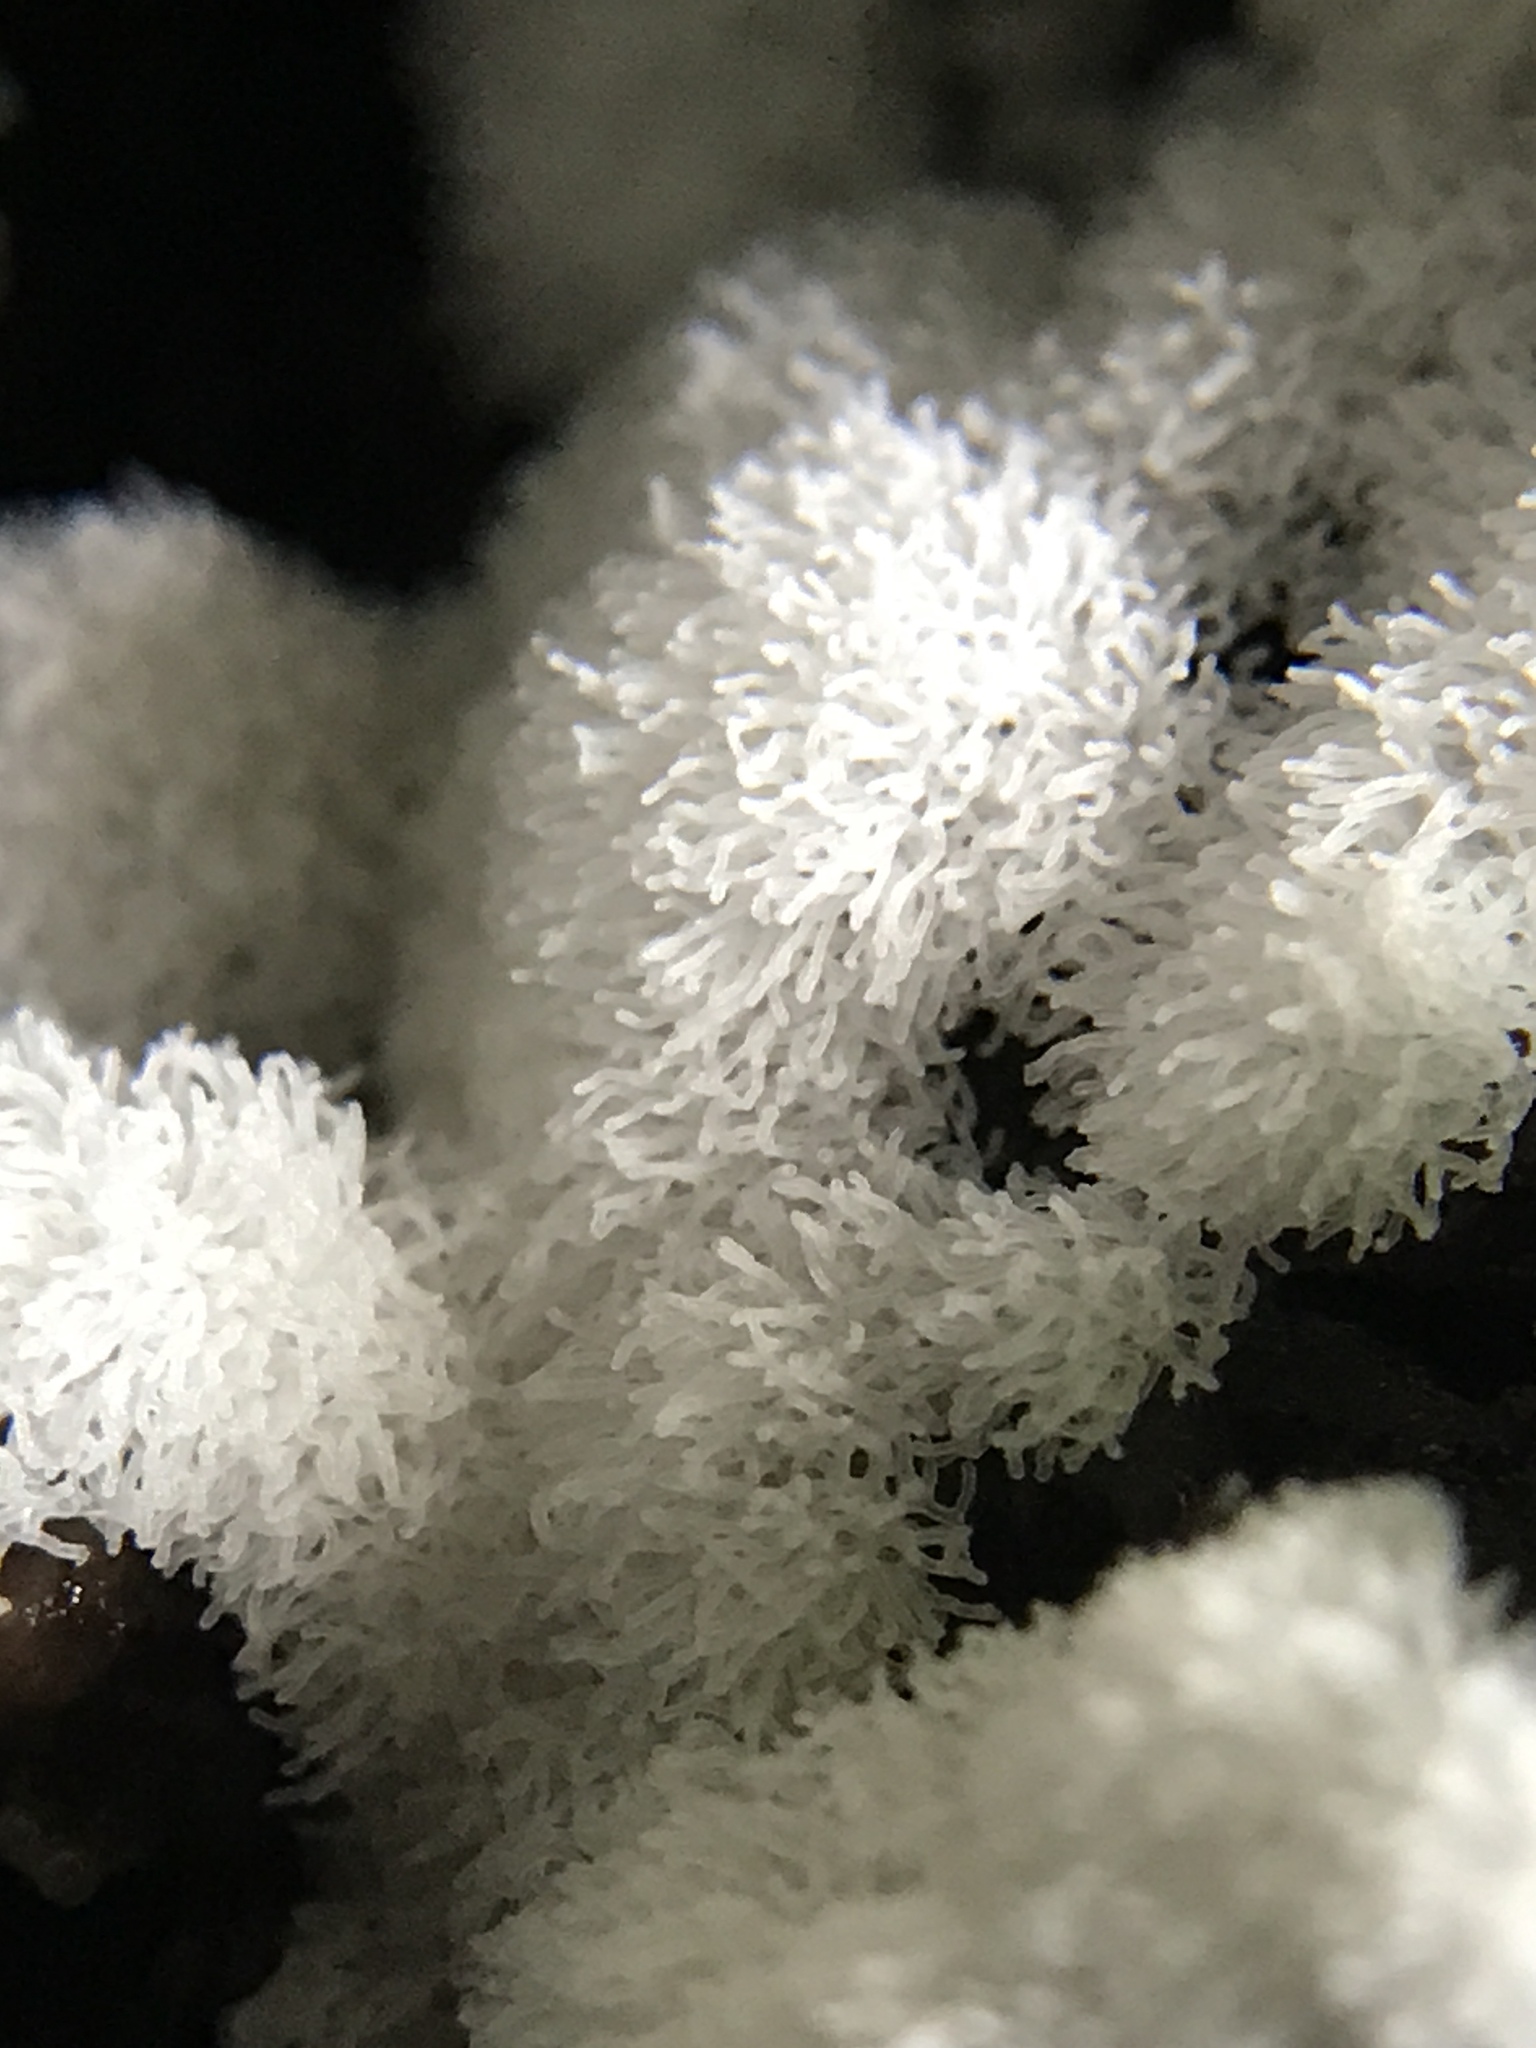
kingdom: Protozoa
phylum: Mycetozoa
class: Protosteliomycetes
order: Ceratiomyxales
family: Ceratiomyxaceae
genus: Ceratiomyxa
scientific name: Ceratiomyxa fruticulosa
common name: Honeycomb coral slime mold
